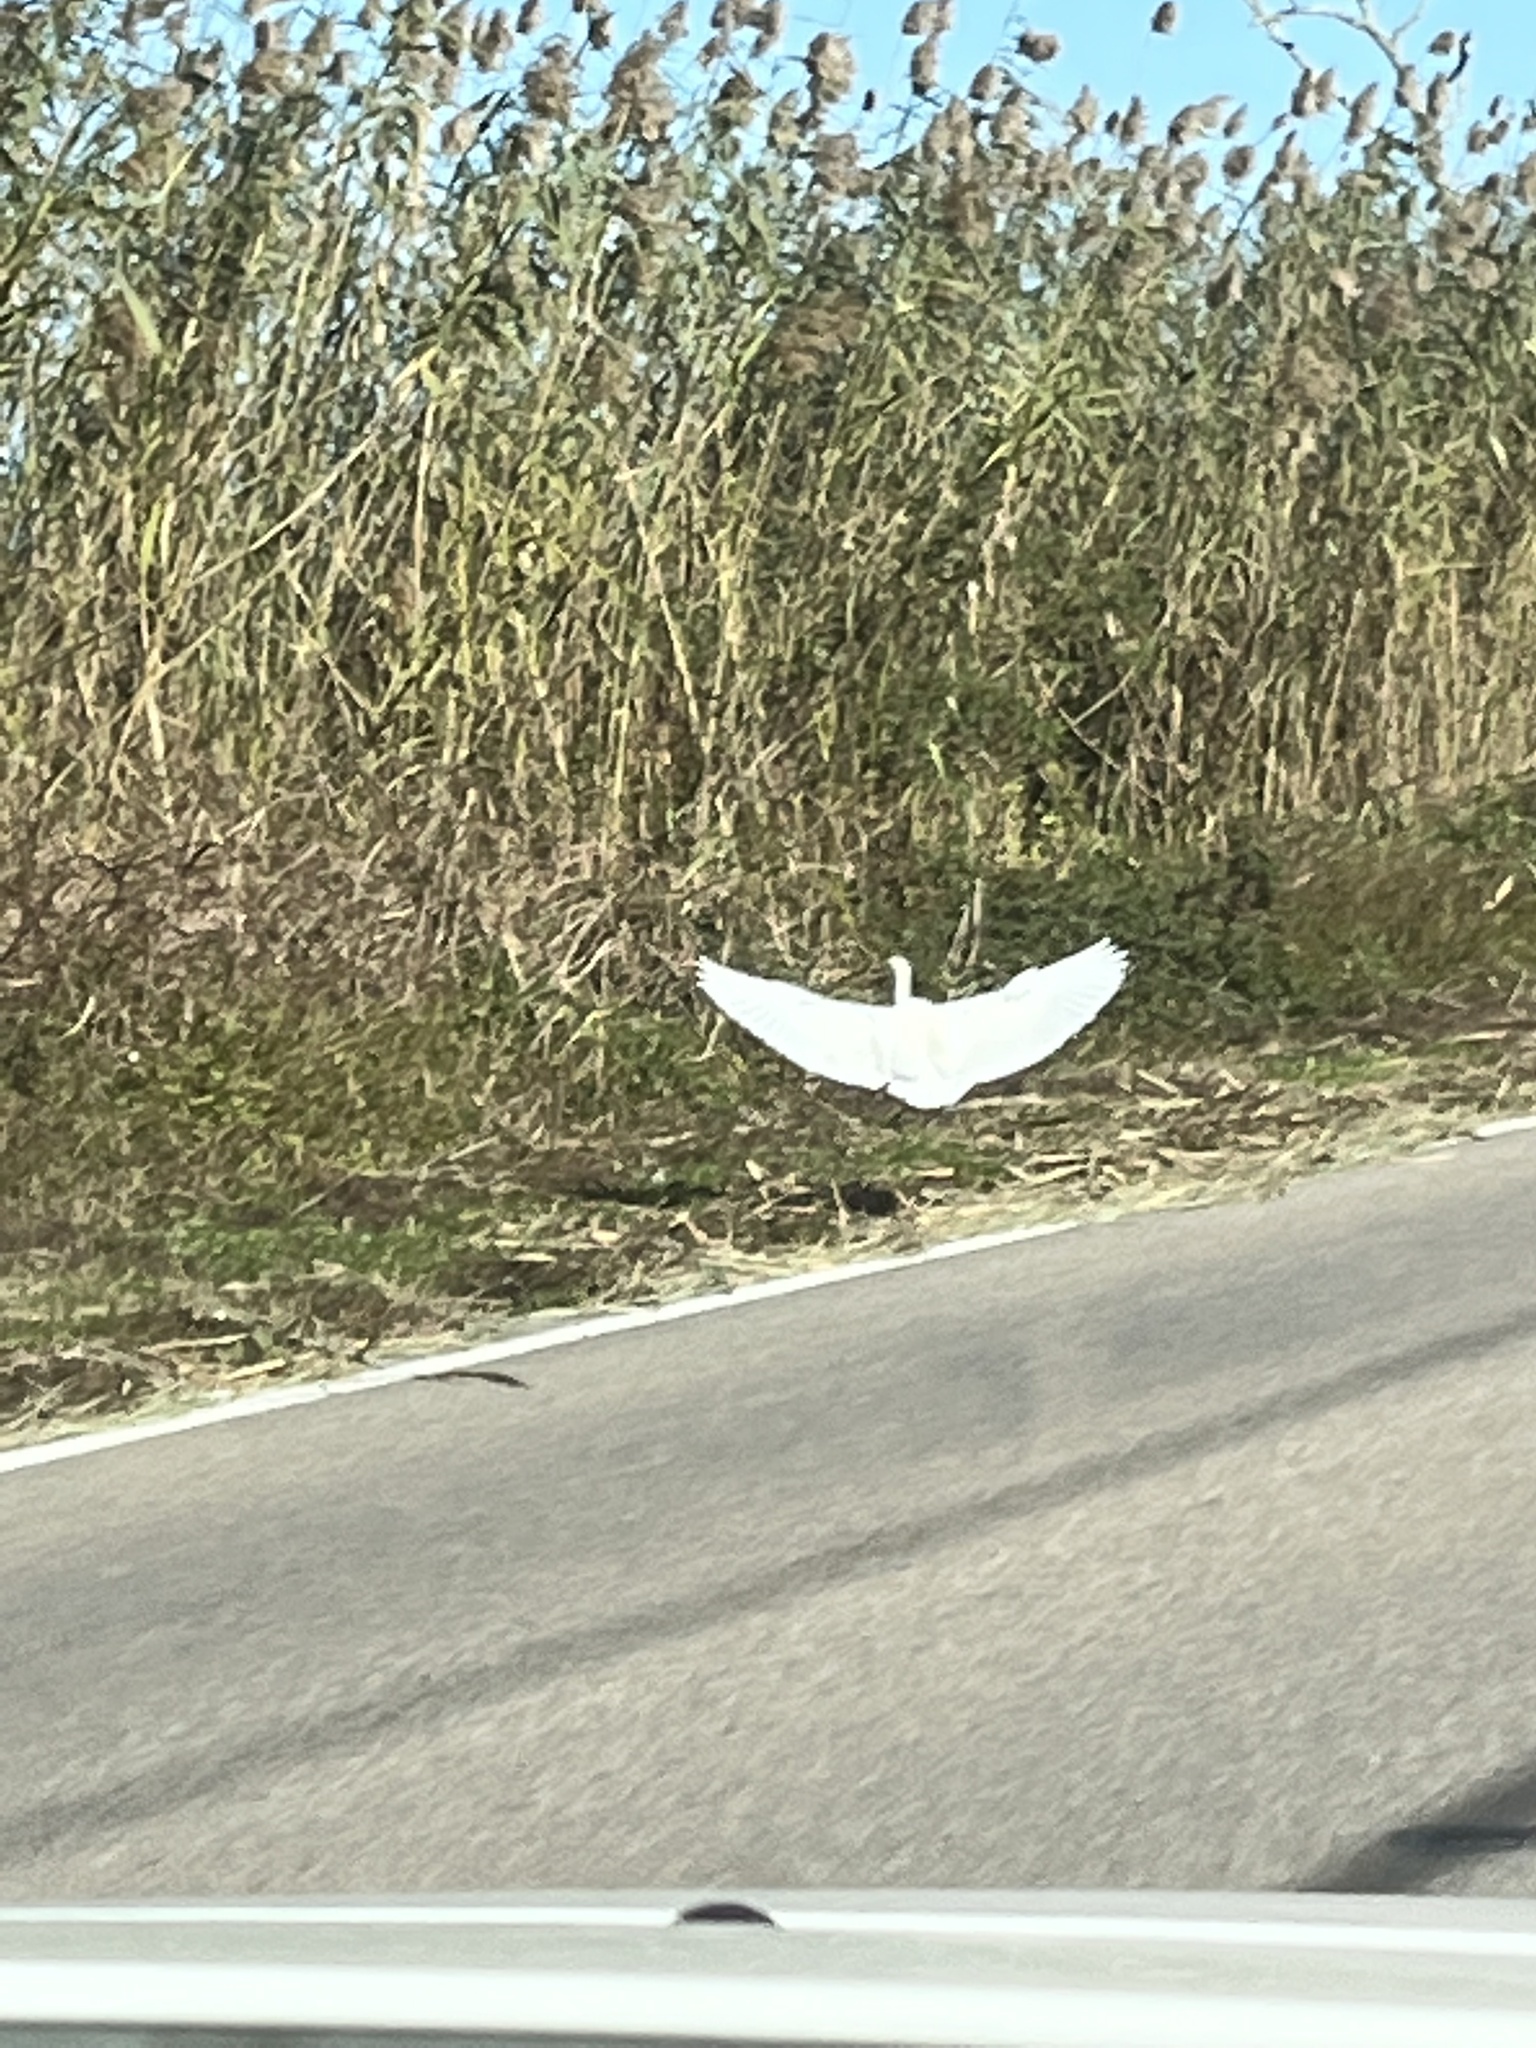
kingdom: Animalia
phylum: Chordata
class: Aves
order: Pelecaniformes
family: Ardeidae
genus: Bubulcus
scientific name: Bubulcus ibis
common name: Cattle egret
